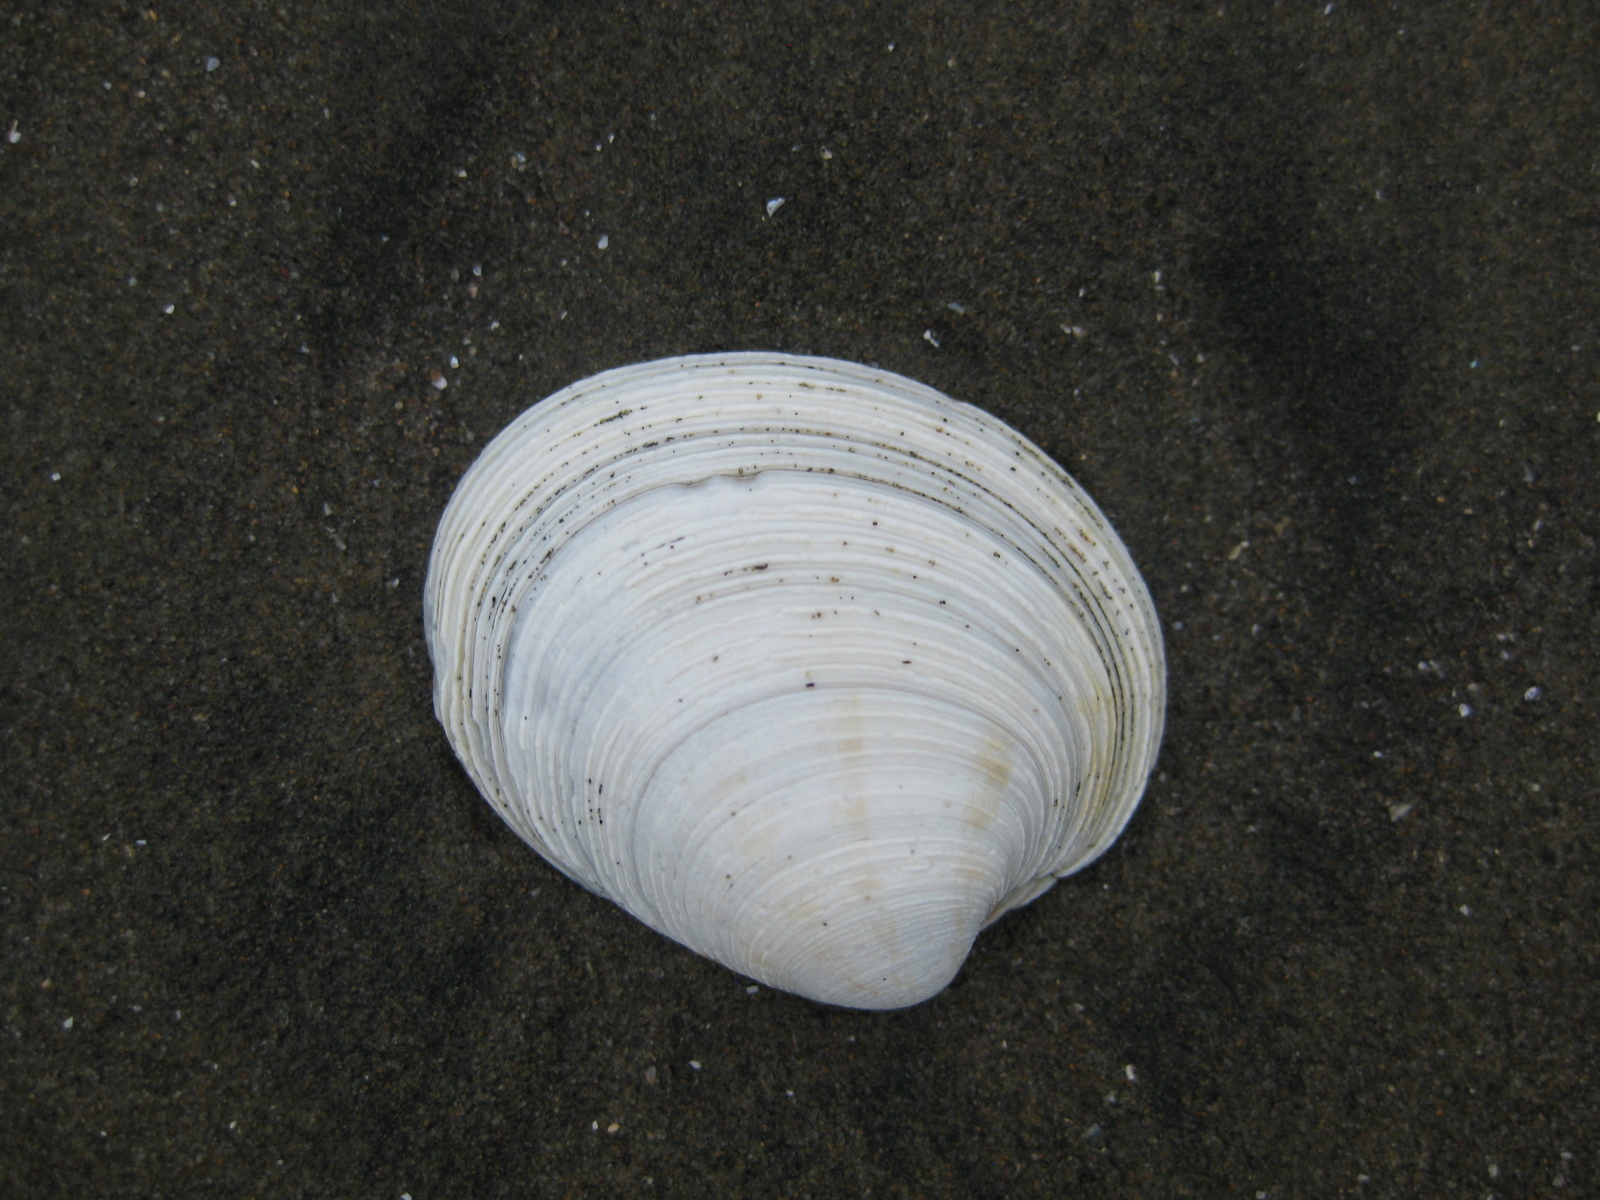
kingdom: Animalia
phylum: Mollusca
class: Bivalvia
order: Venerida
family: Veneridae
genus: Dosina
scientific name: Dosina mactracea
